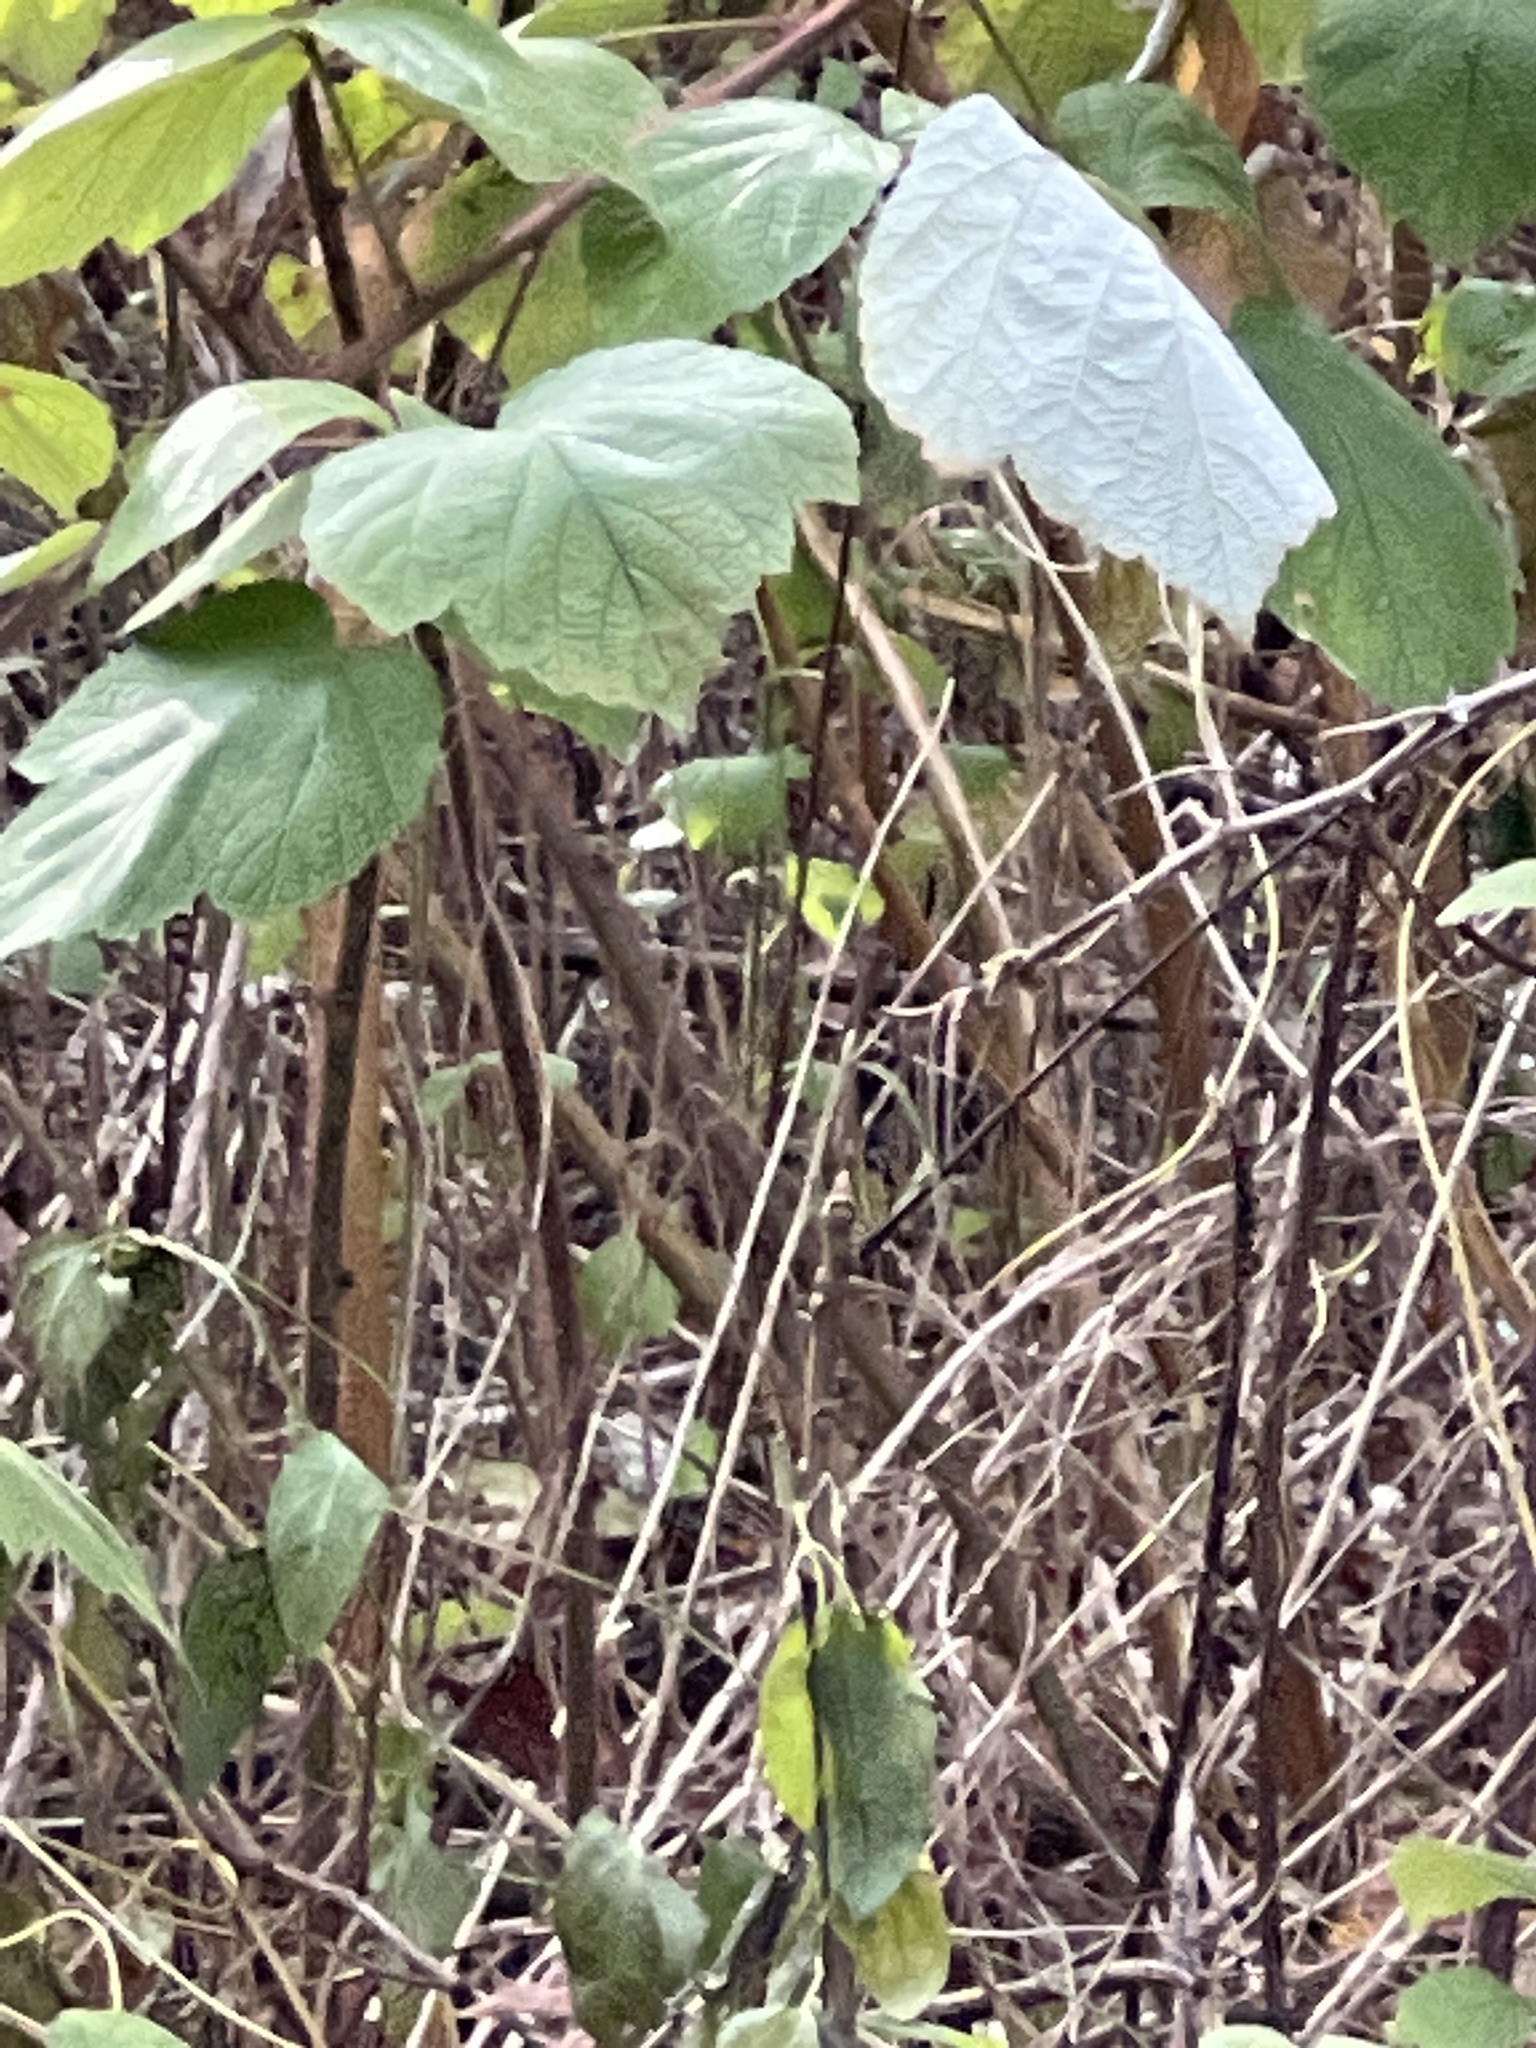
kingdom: Plantae
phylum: Tracheophyta
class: Magnoliopsida
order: Rosales
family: Rosaceae
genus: Rubus
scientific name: Rubus phoenicolasius
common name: Japanese wineberry
